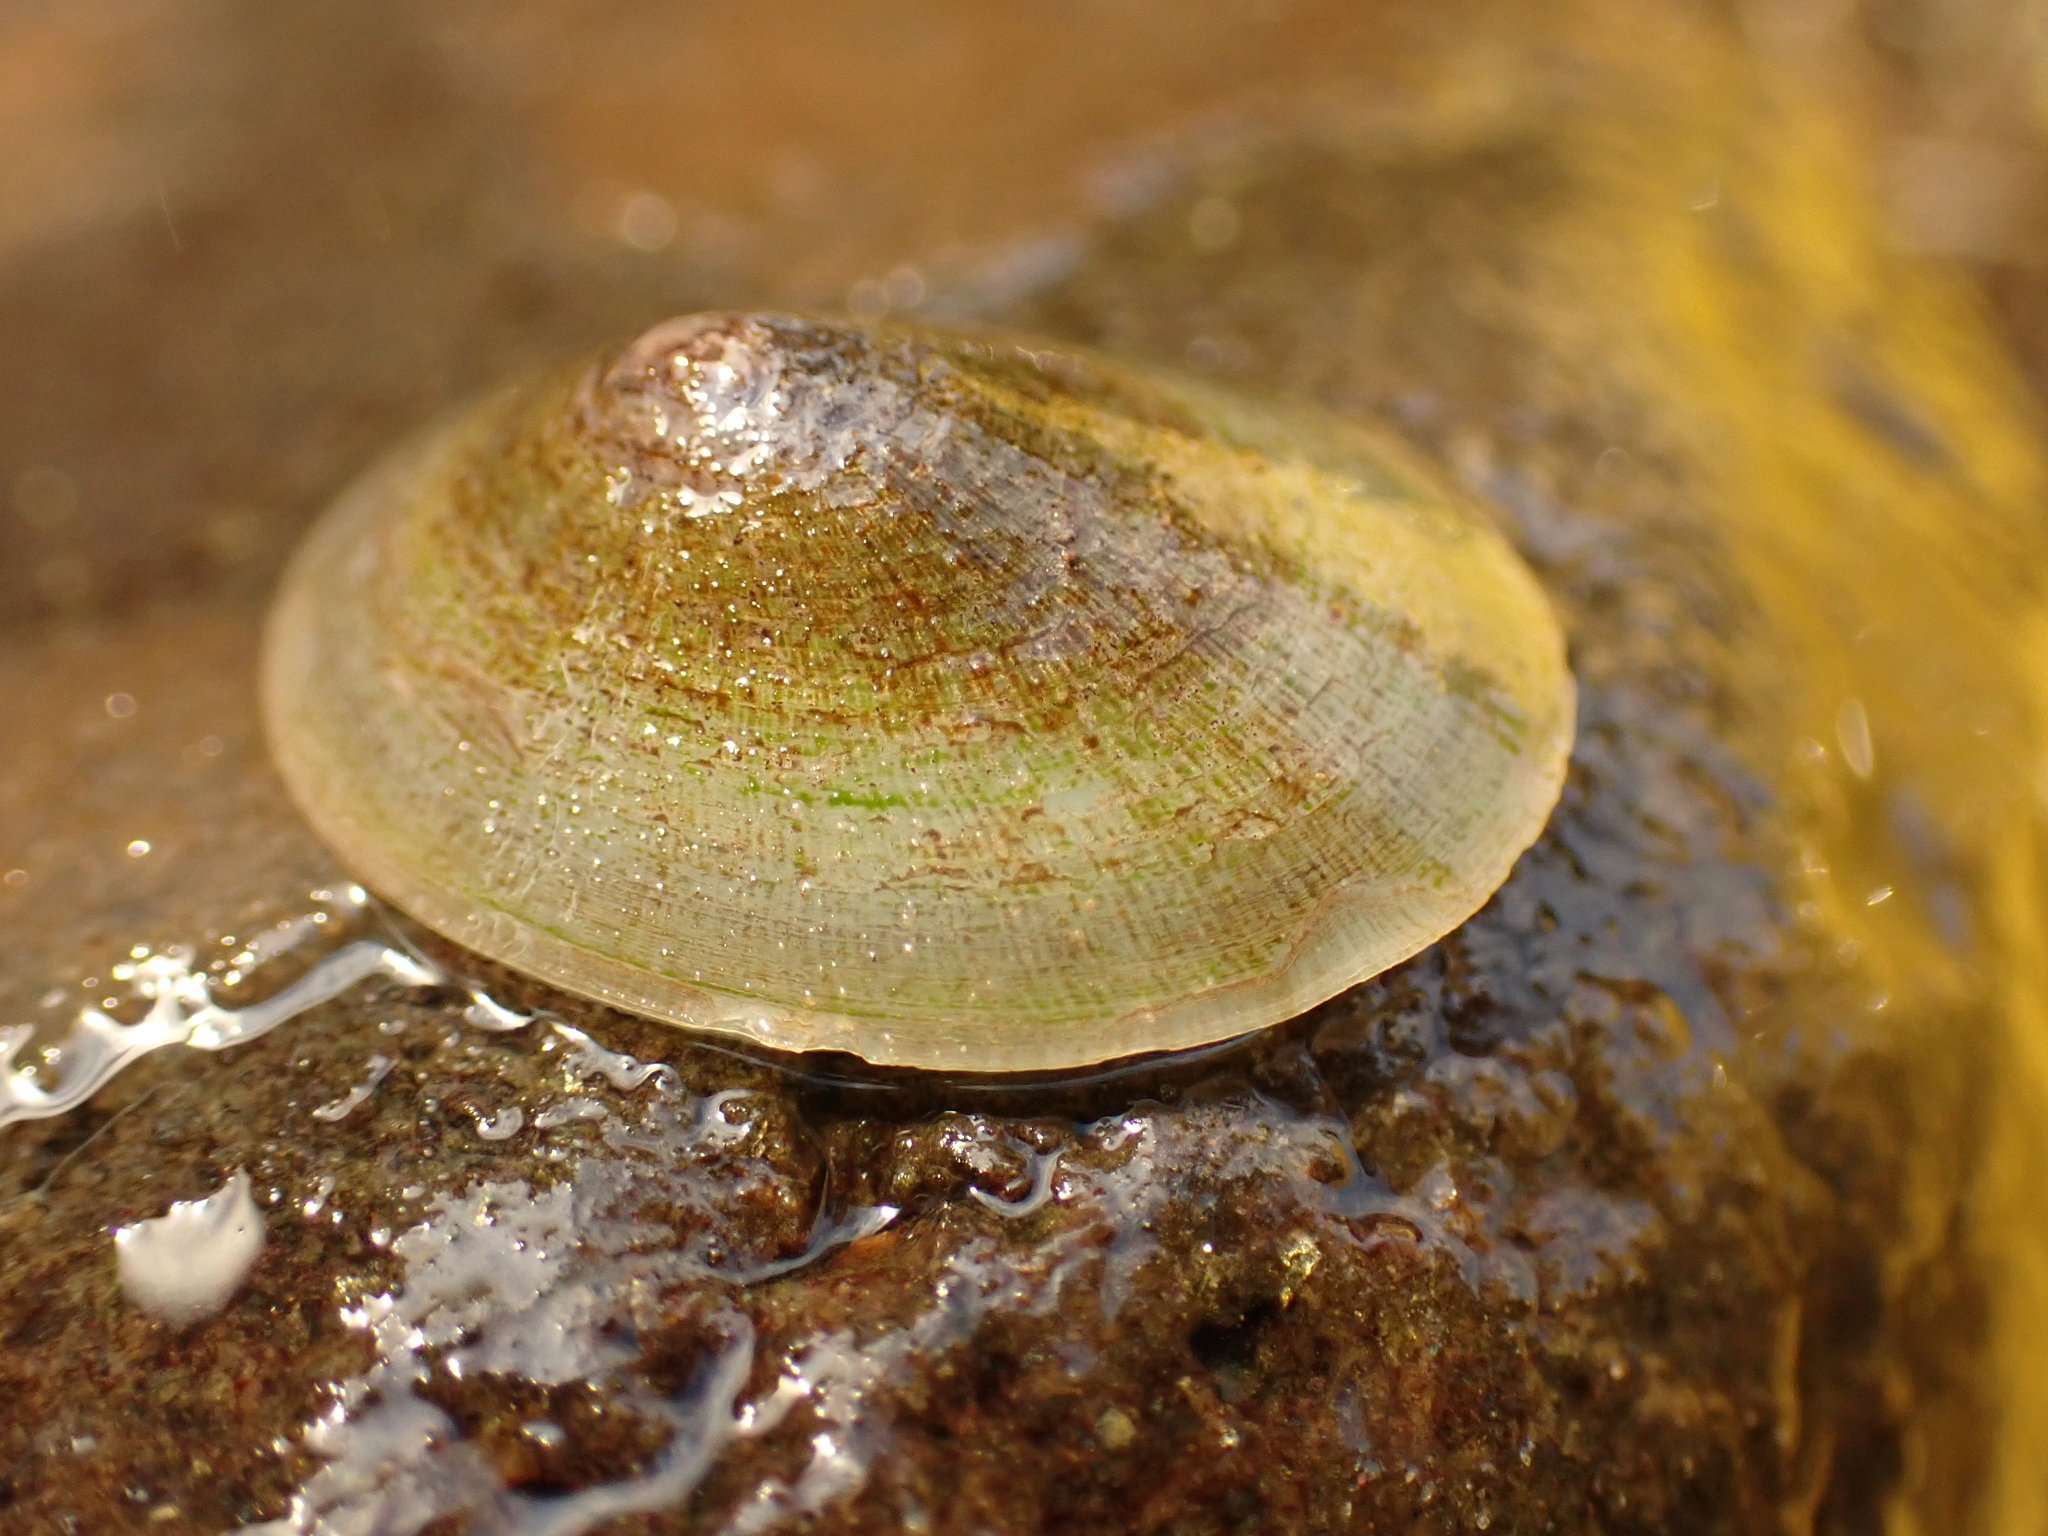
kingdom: Animalia
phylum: Mollusca
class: Gastropoda
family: Lottiidae
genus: Testudinalia
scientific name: Testudinalia testudinalis
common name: Common tortoiseshell limpet
